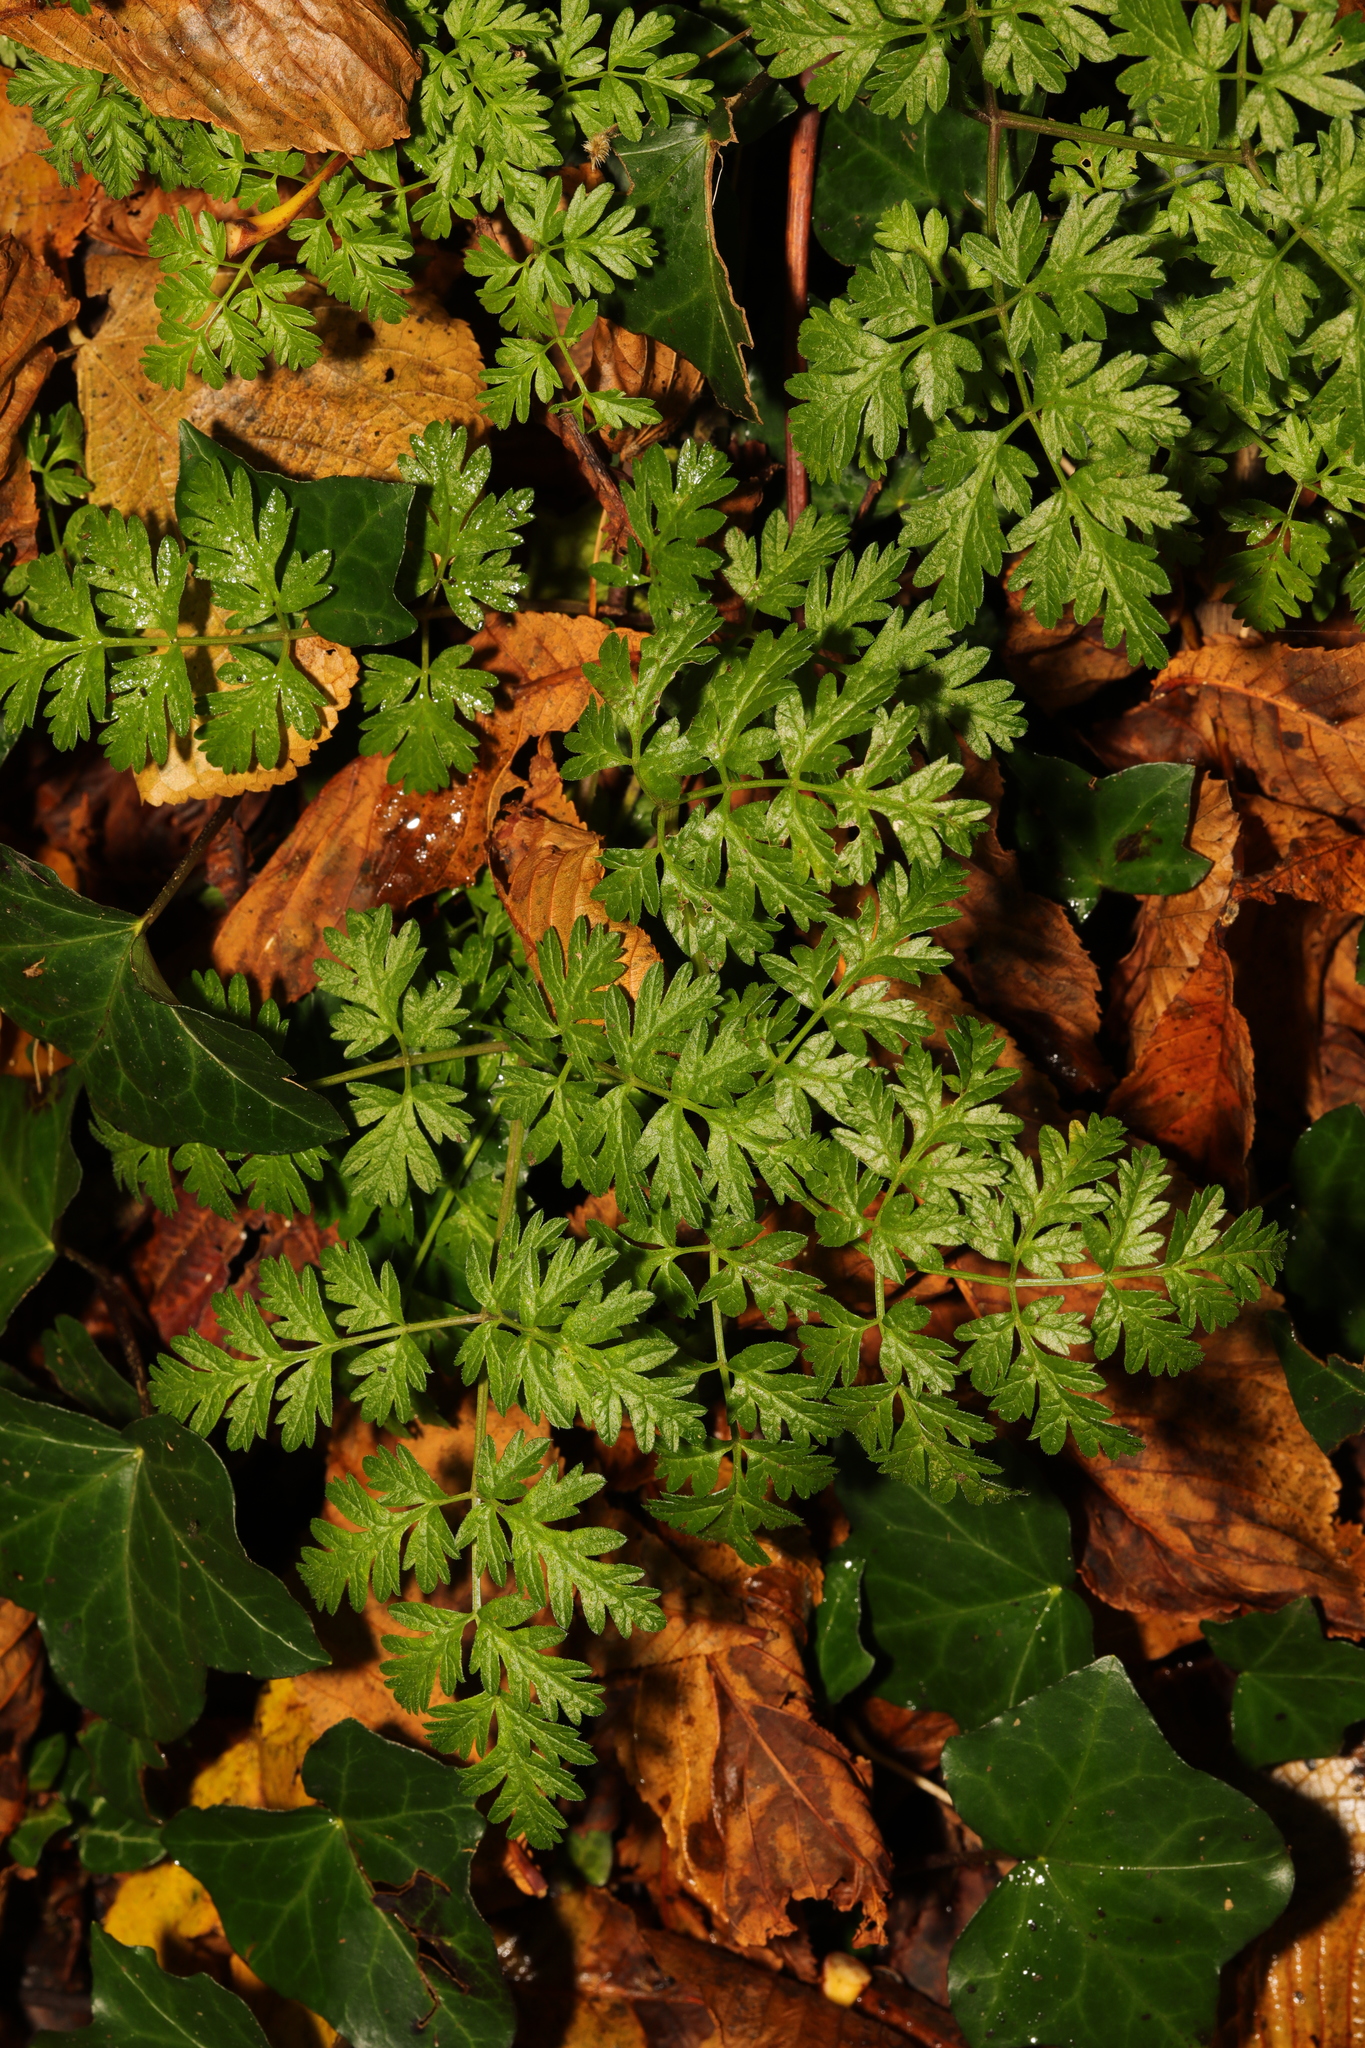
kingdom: Plantae
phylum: Tracheophyta
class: Magnoliopsida
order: Apiales
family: Apiaceae
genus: Anthriscus
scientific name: Anthriscus sylvestris
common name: Cow parsley
